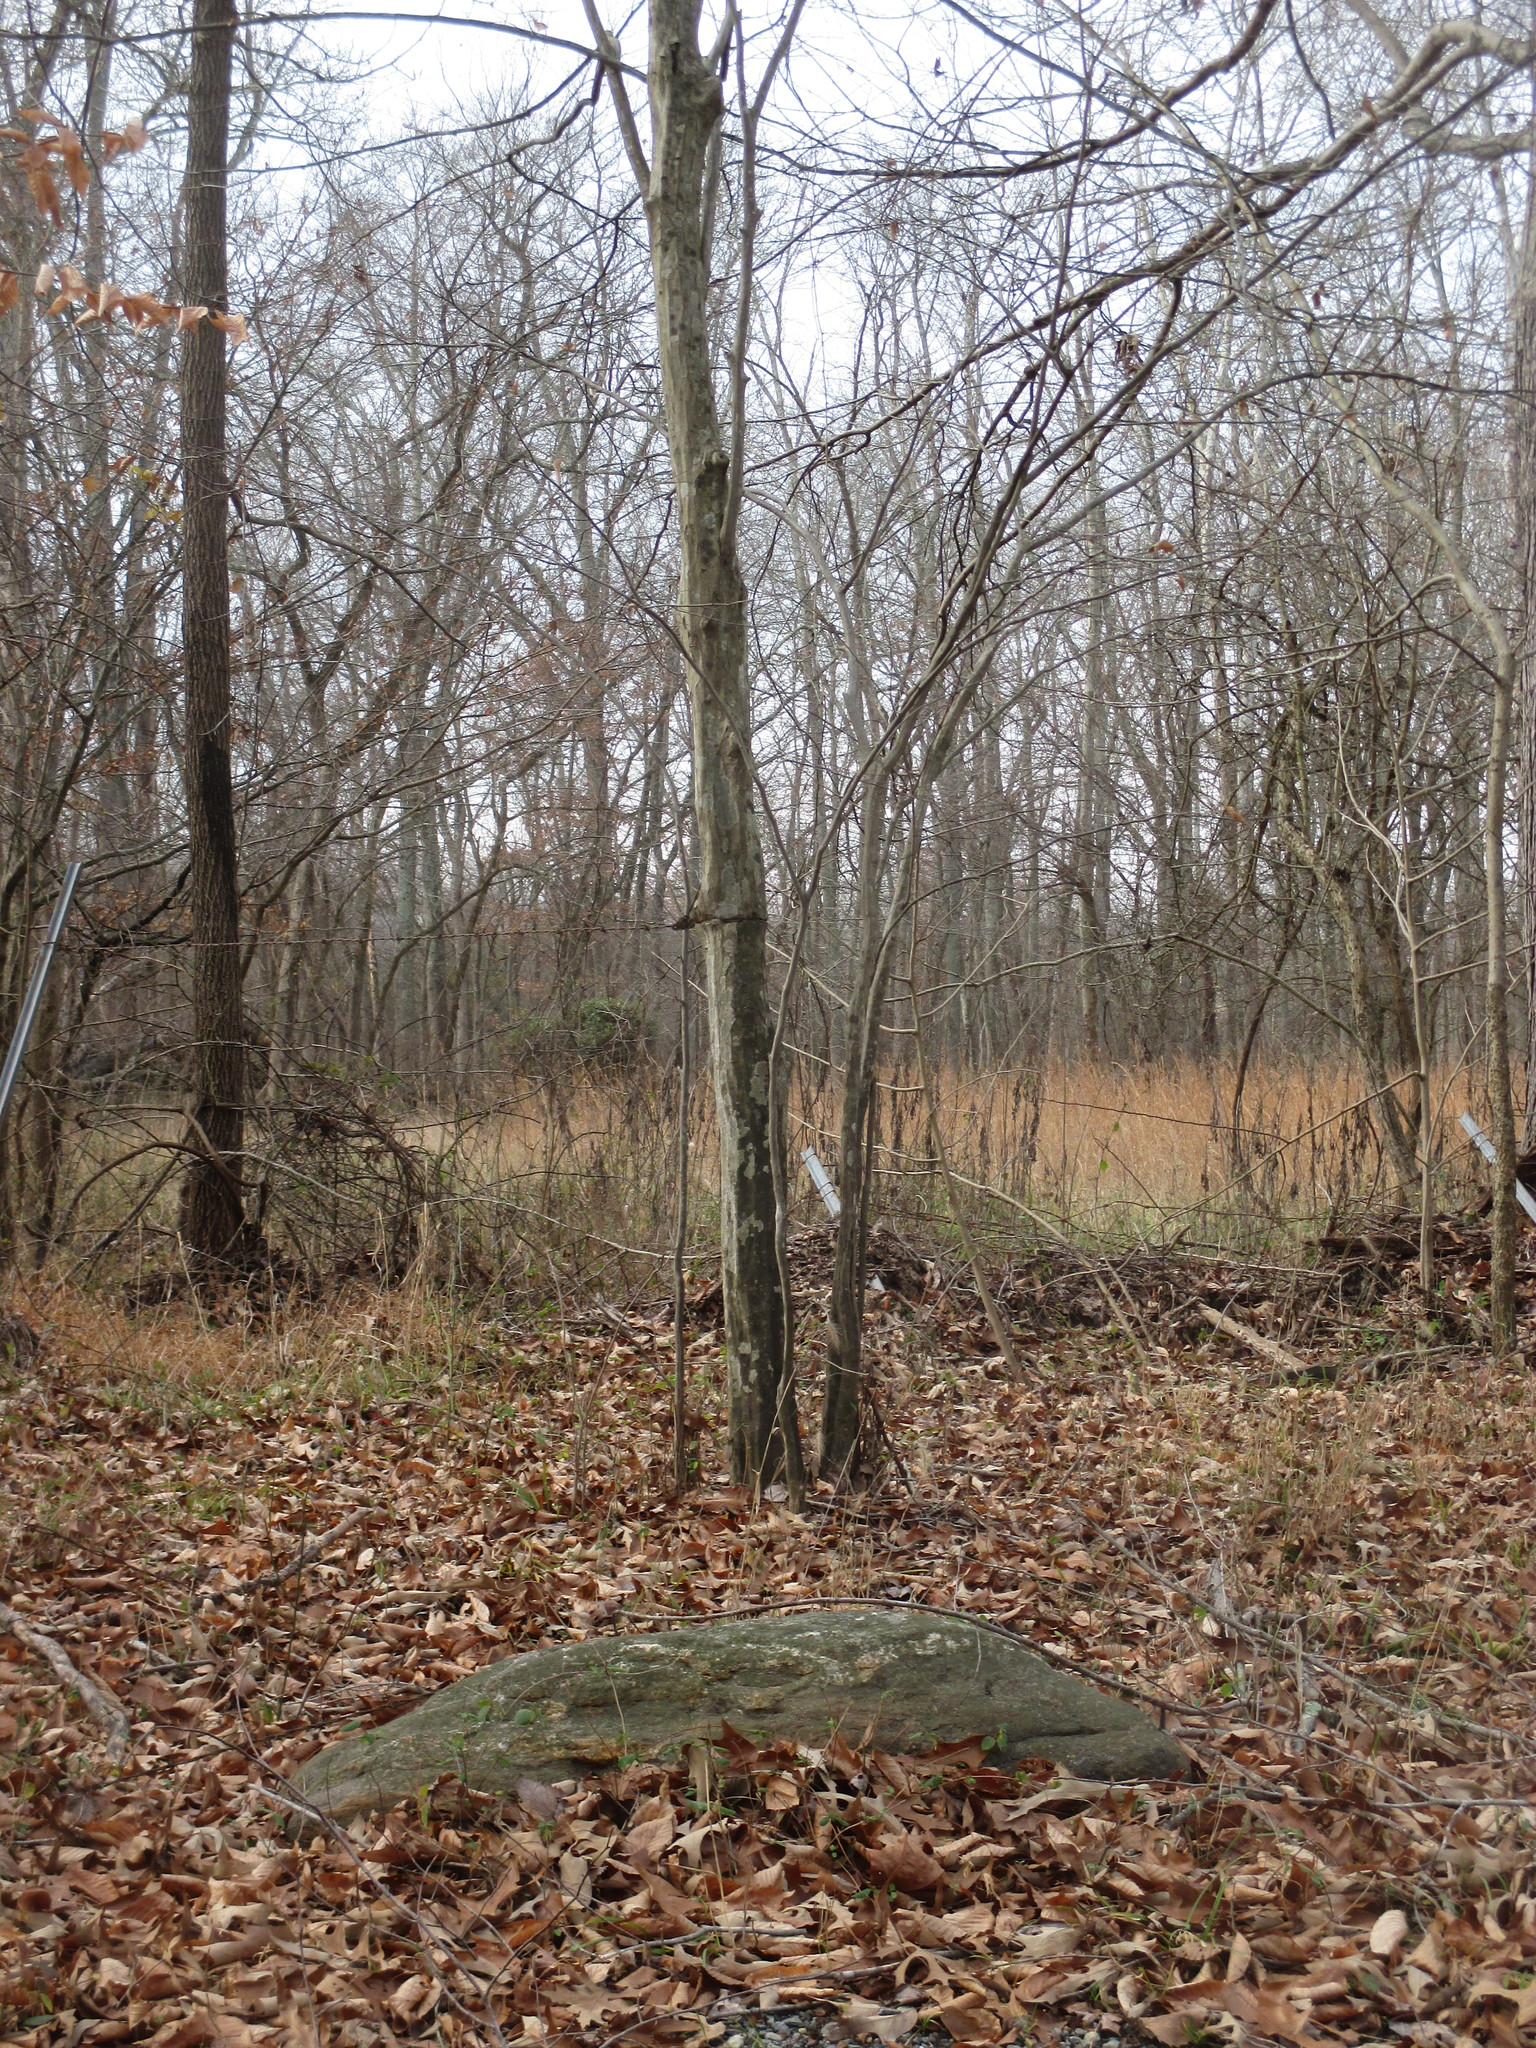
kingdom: Plantae
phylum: Tracheophyta
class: Magnoliopsida
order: Fagales
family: Betulaceae
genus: Carpinus
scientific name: Carpinus caroliniana
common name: American hornbeam
